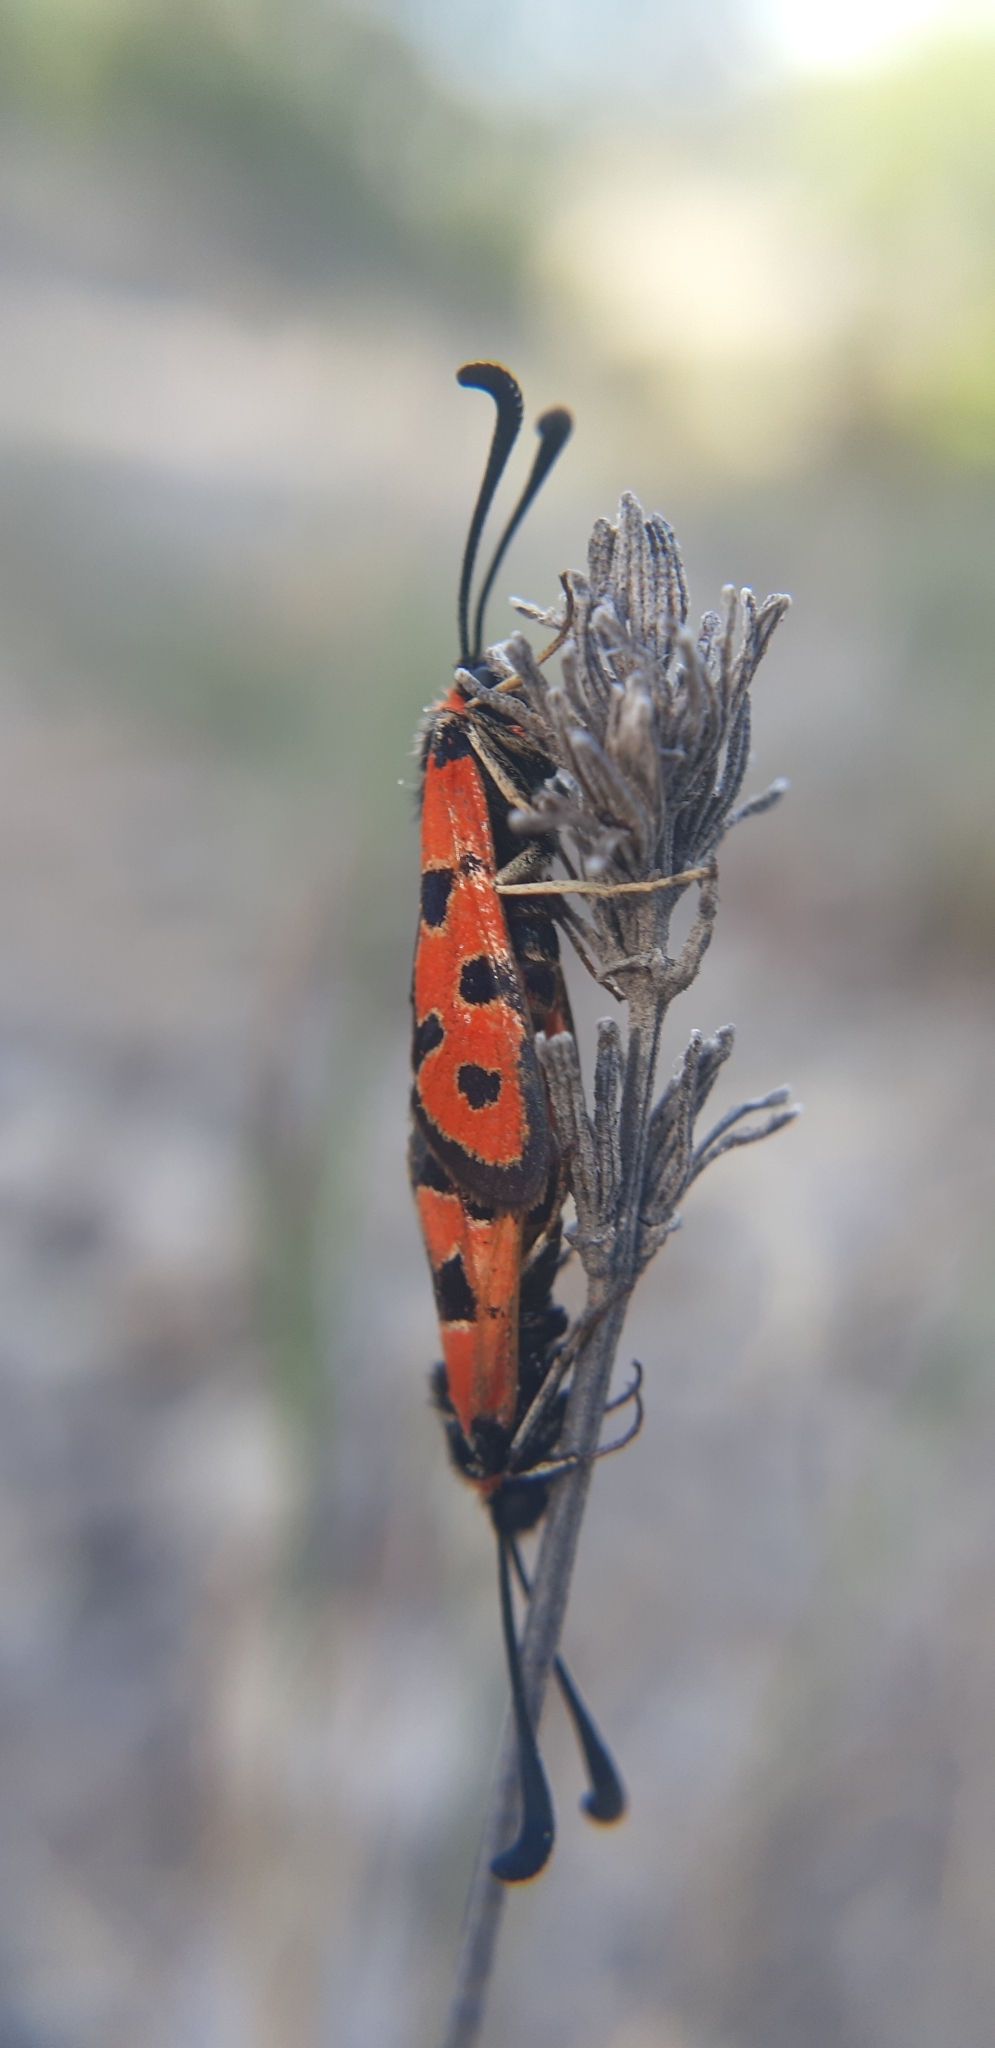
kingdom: Animalia
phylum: Arthropoda
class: Insecta
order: Lepidoptera
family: Zygaenidae
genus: Zygaena
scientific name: Zygaena fausta
